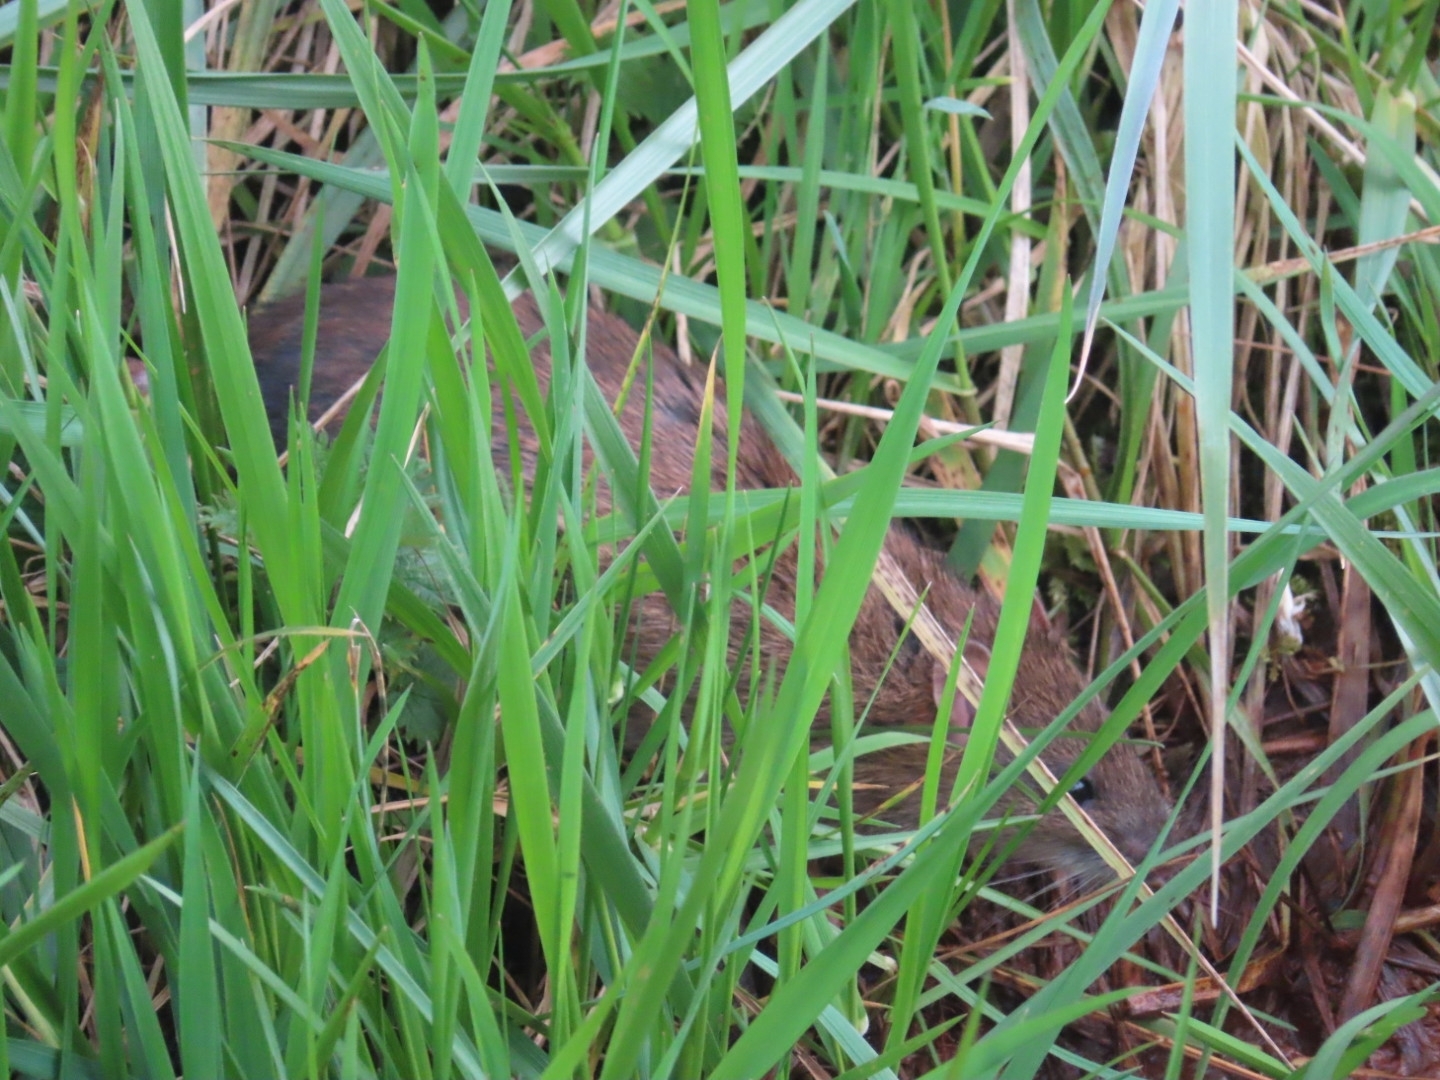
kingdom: Animalia
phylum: Chordata
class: Mammalia
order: Rodentia
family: Muridae
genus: Rattus
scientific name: Rattus norvegicus
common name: Brown rat
